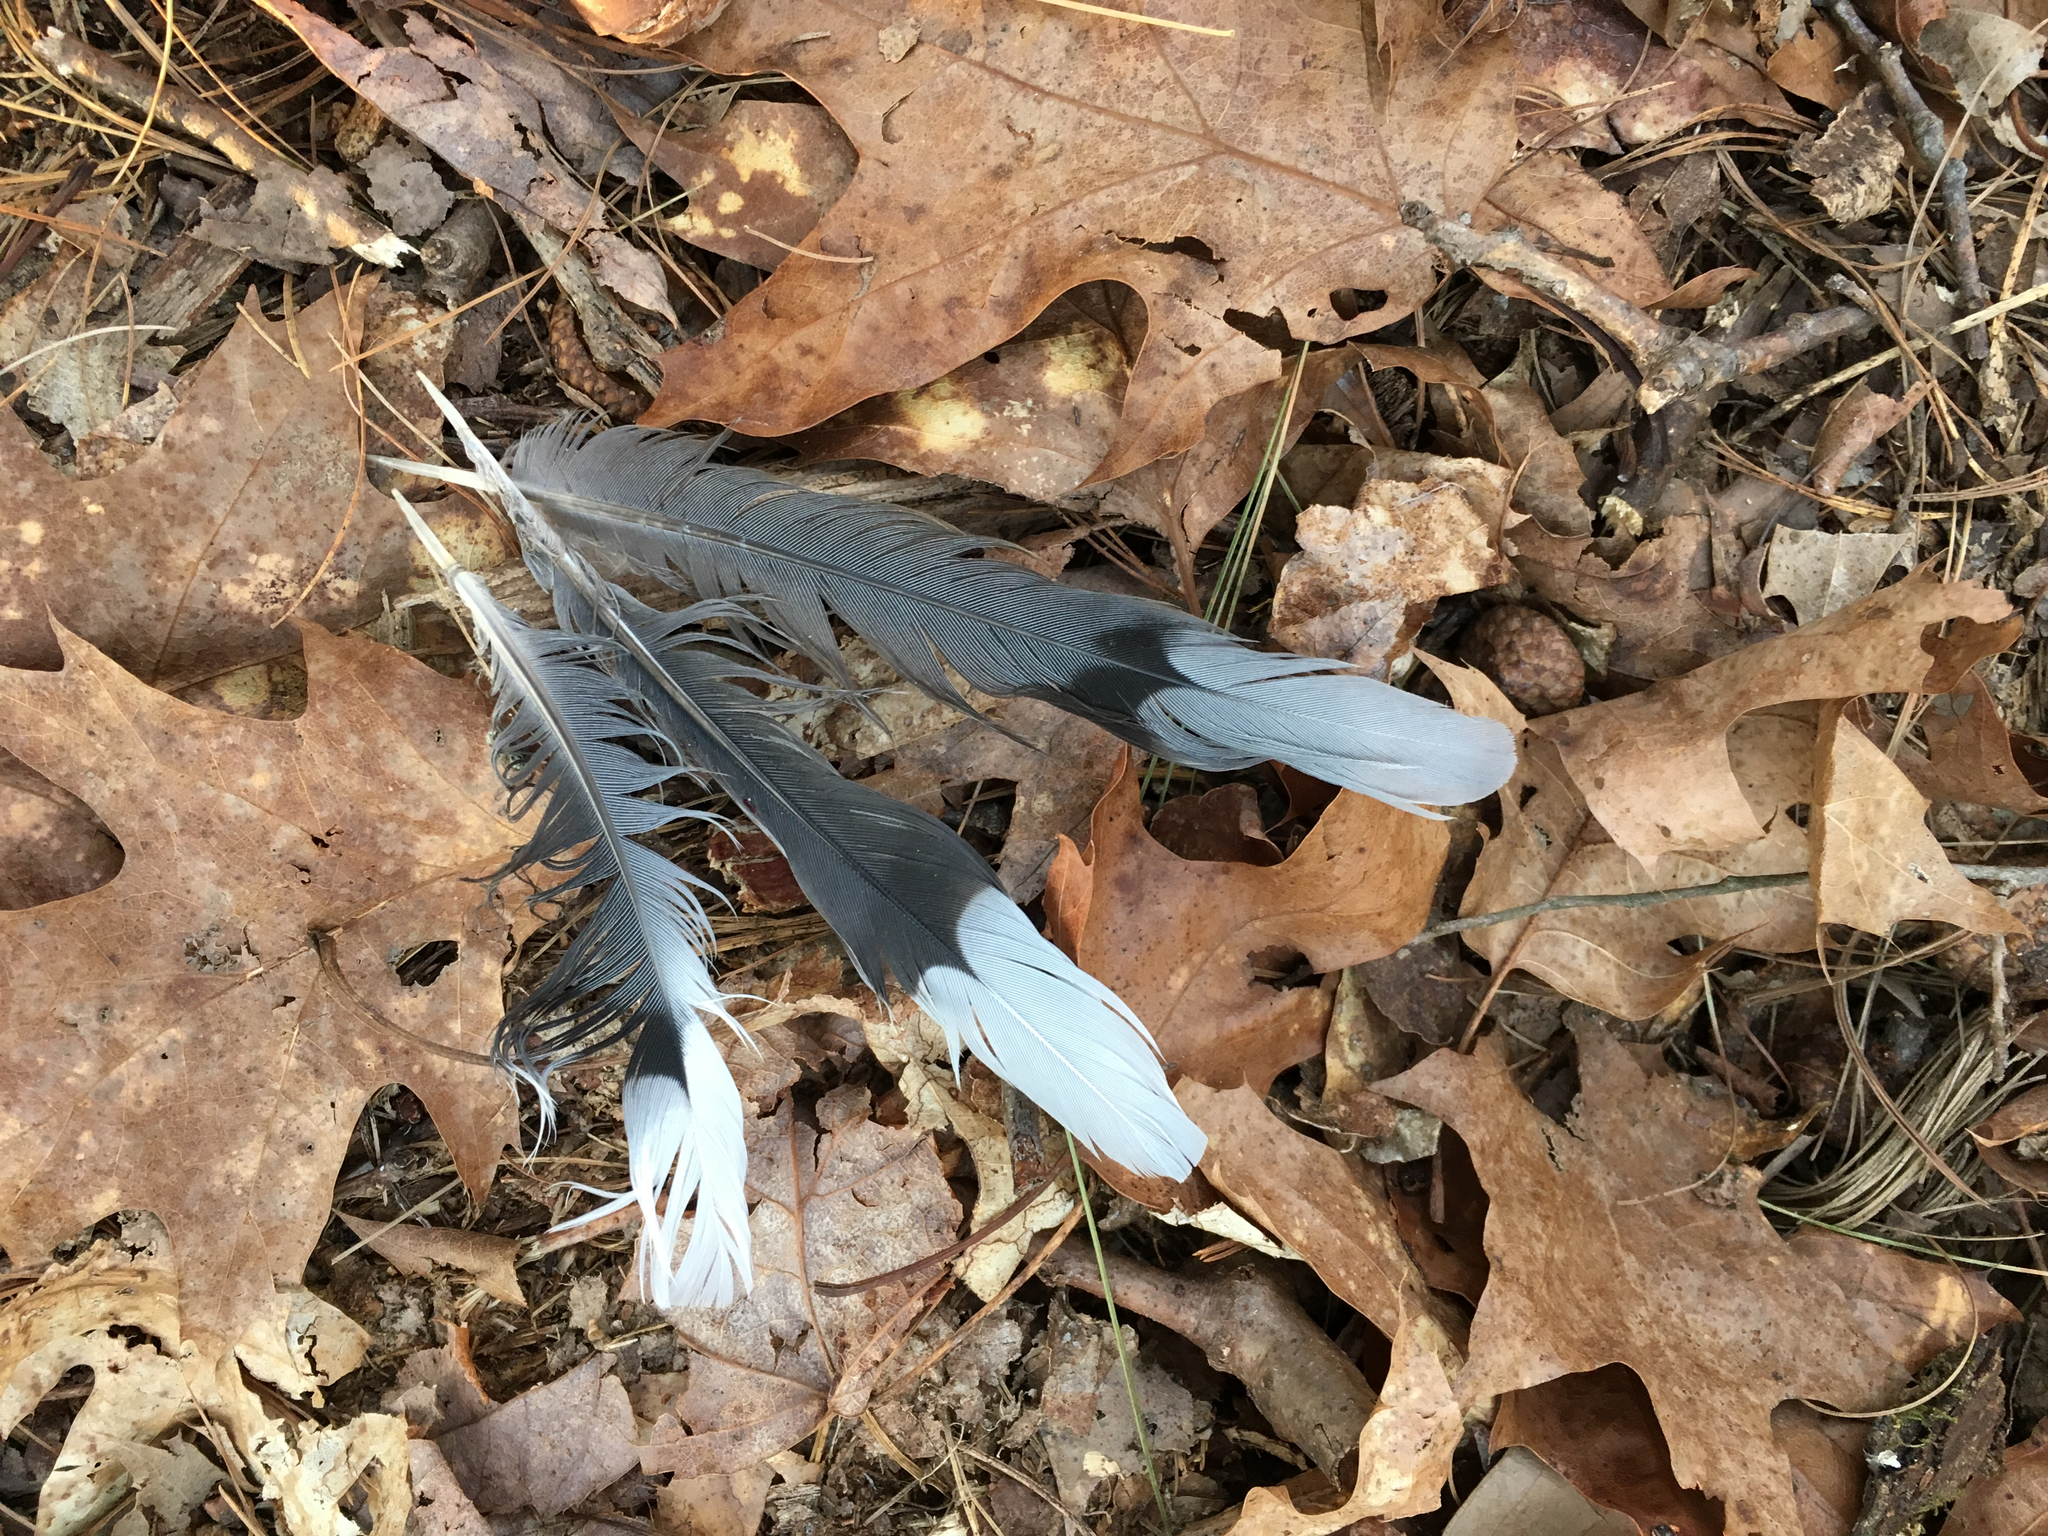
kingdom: Animalia
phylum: Chordata
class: Aves
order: Columbiformes
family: Columbidae
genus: Zenaida
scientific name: Zenaida macroura
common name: Mourning dove
